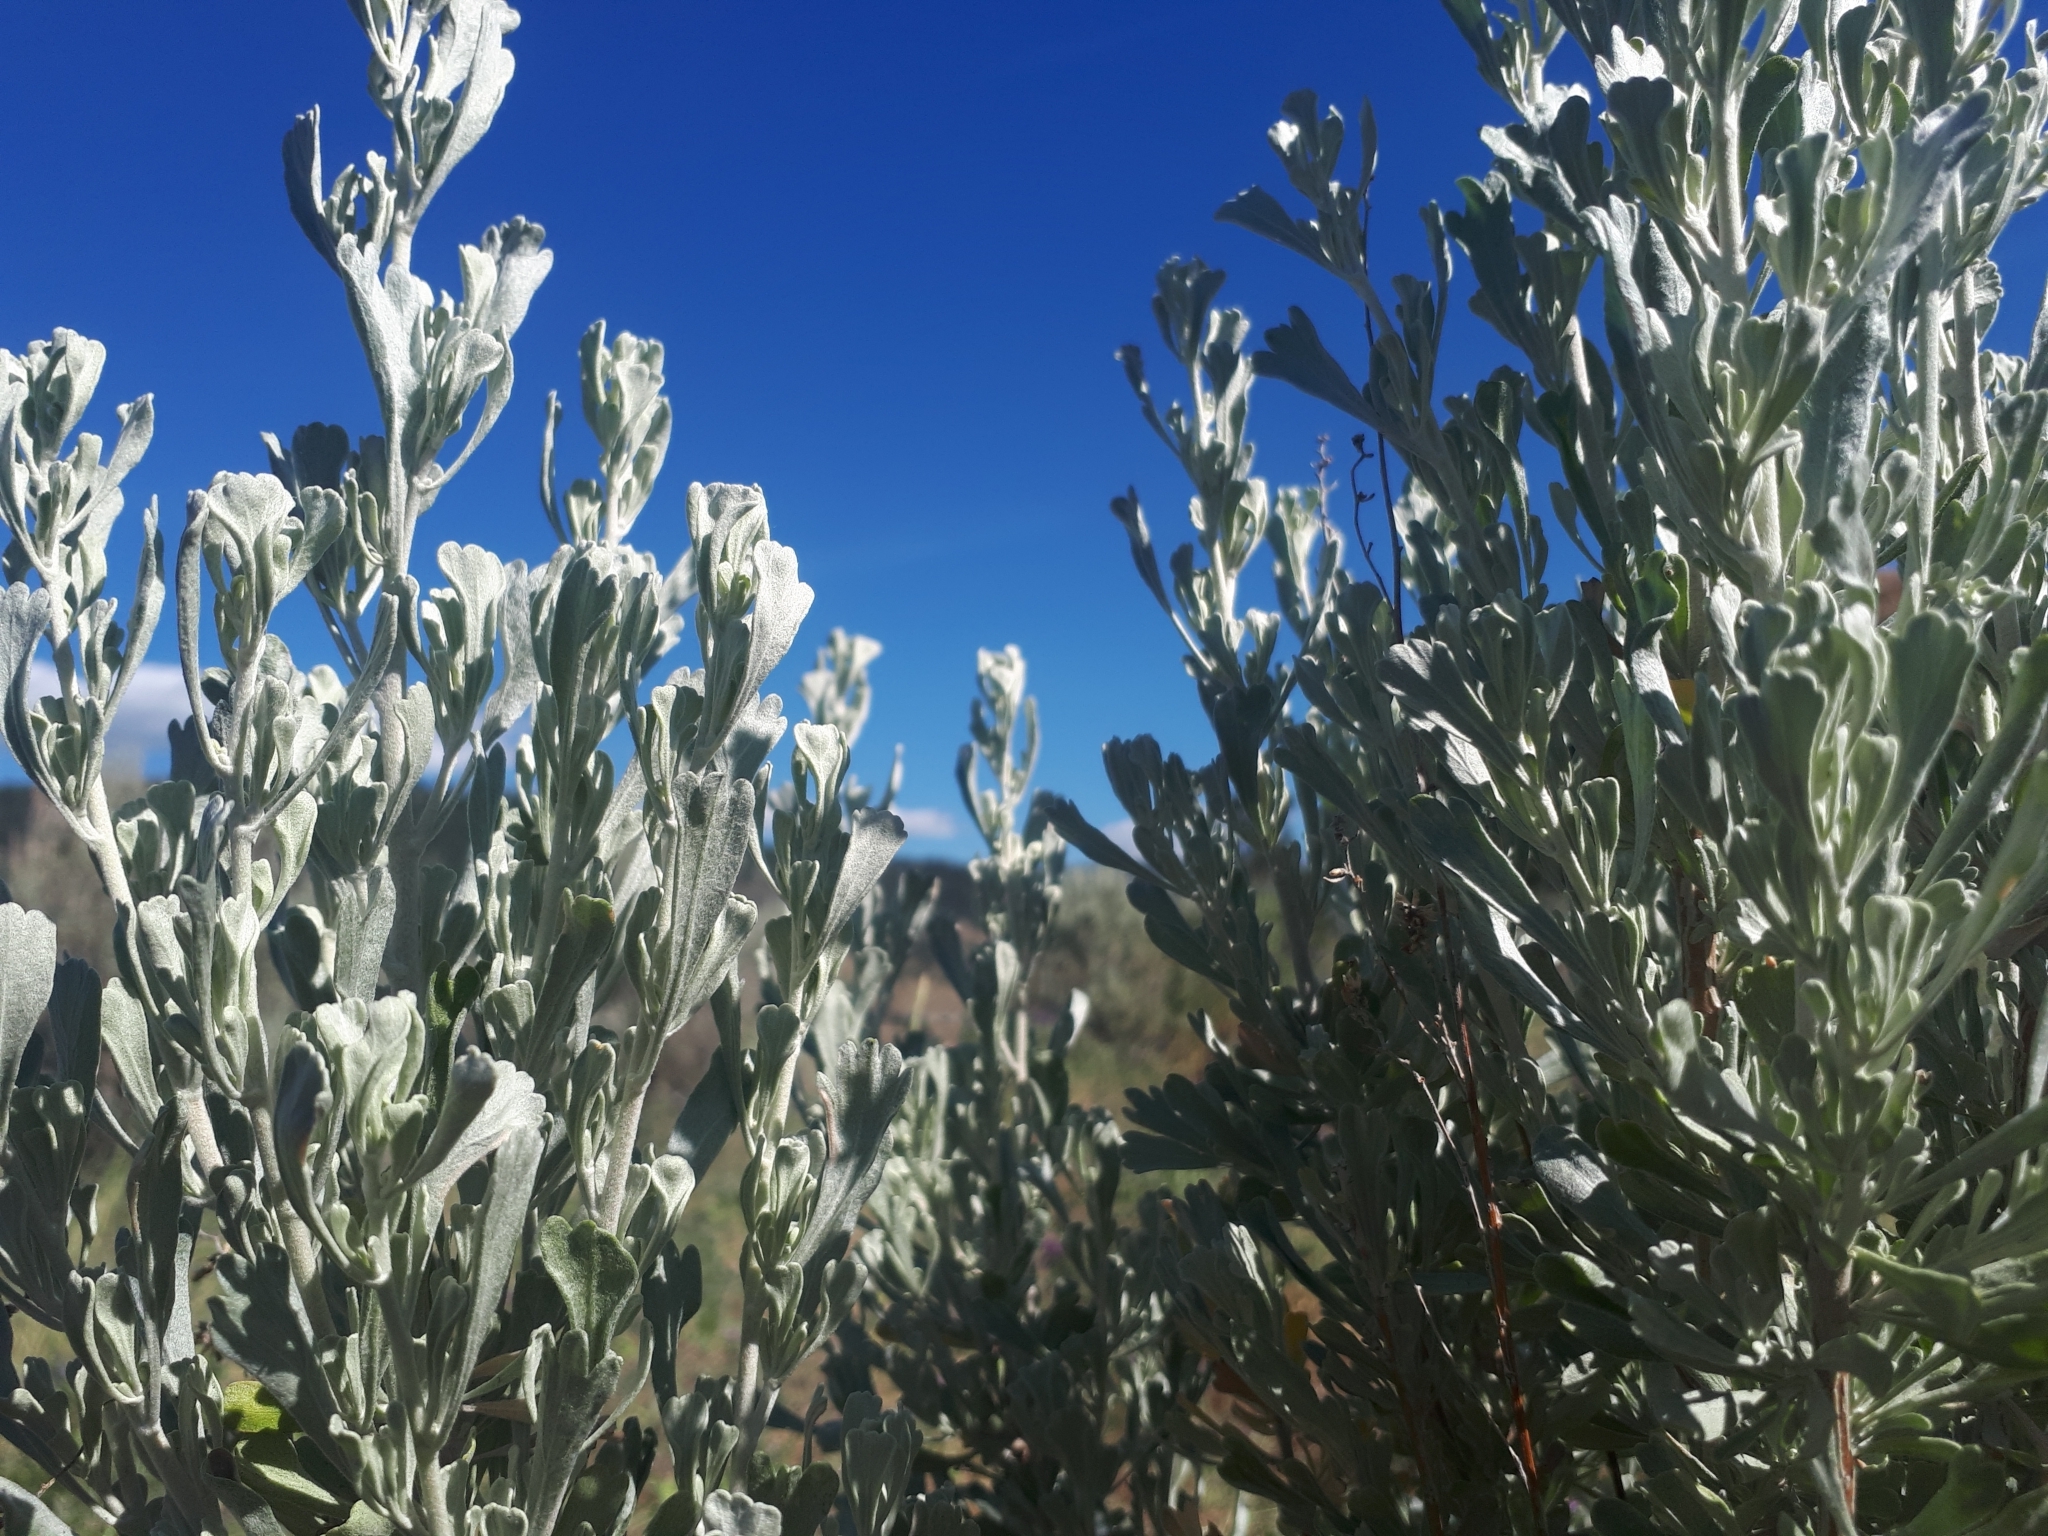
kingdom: Plantae
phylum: Tracheophyta
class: Magnoliopsida
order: Asterales
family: Asteraceae
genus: Artemisia
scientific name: Artemisia tridentata
